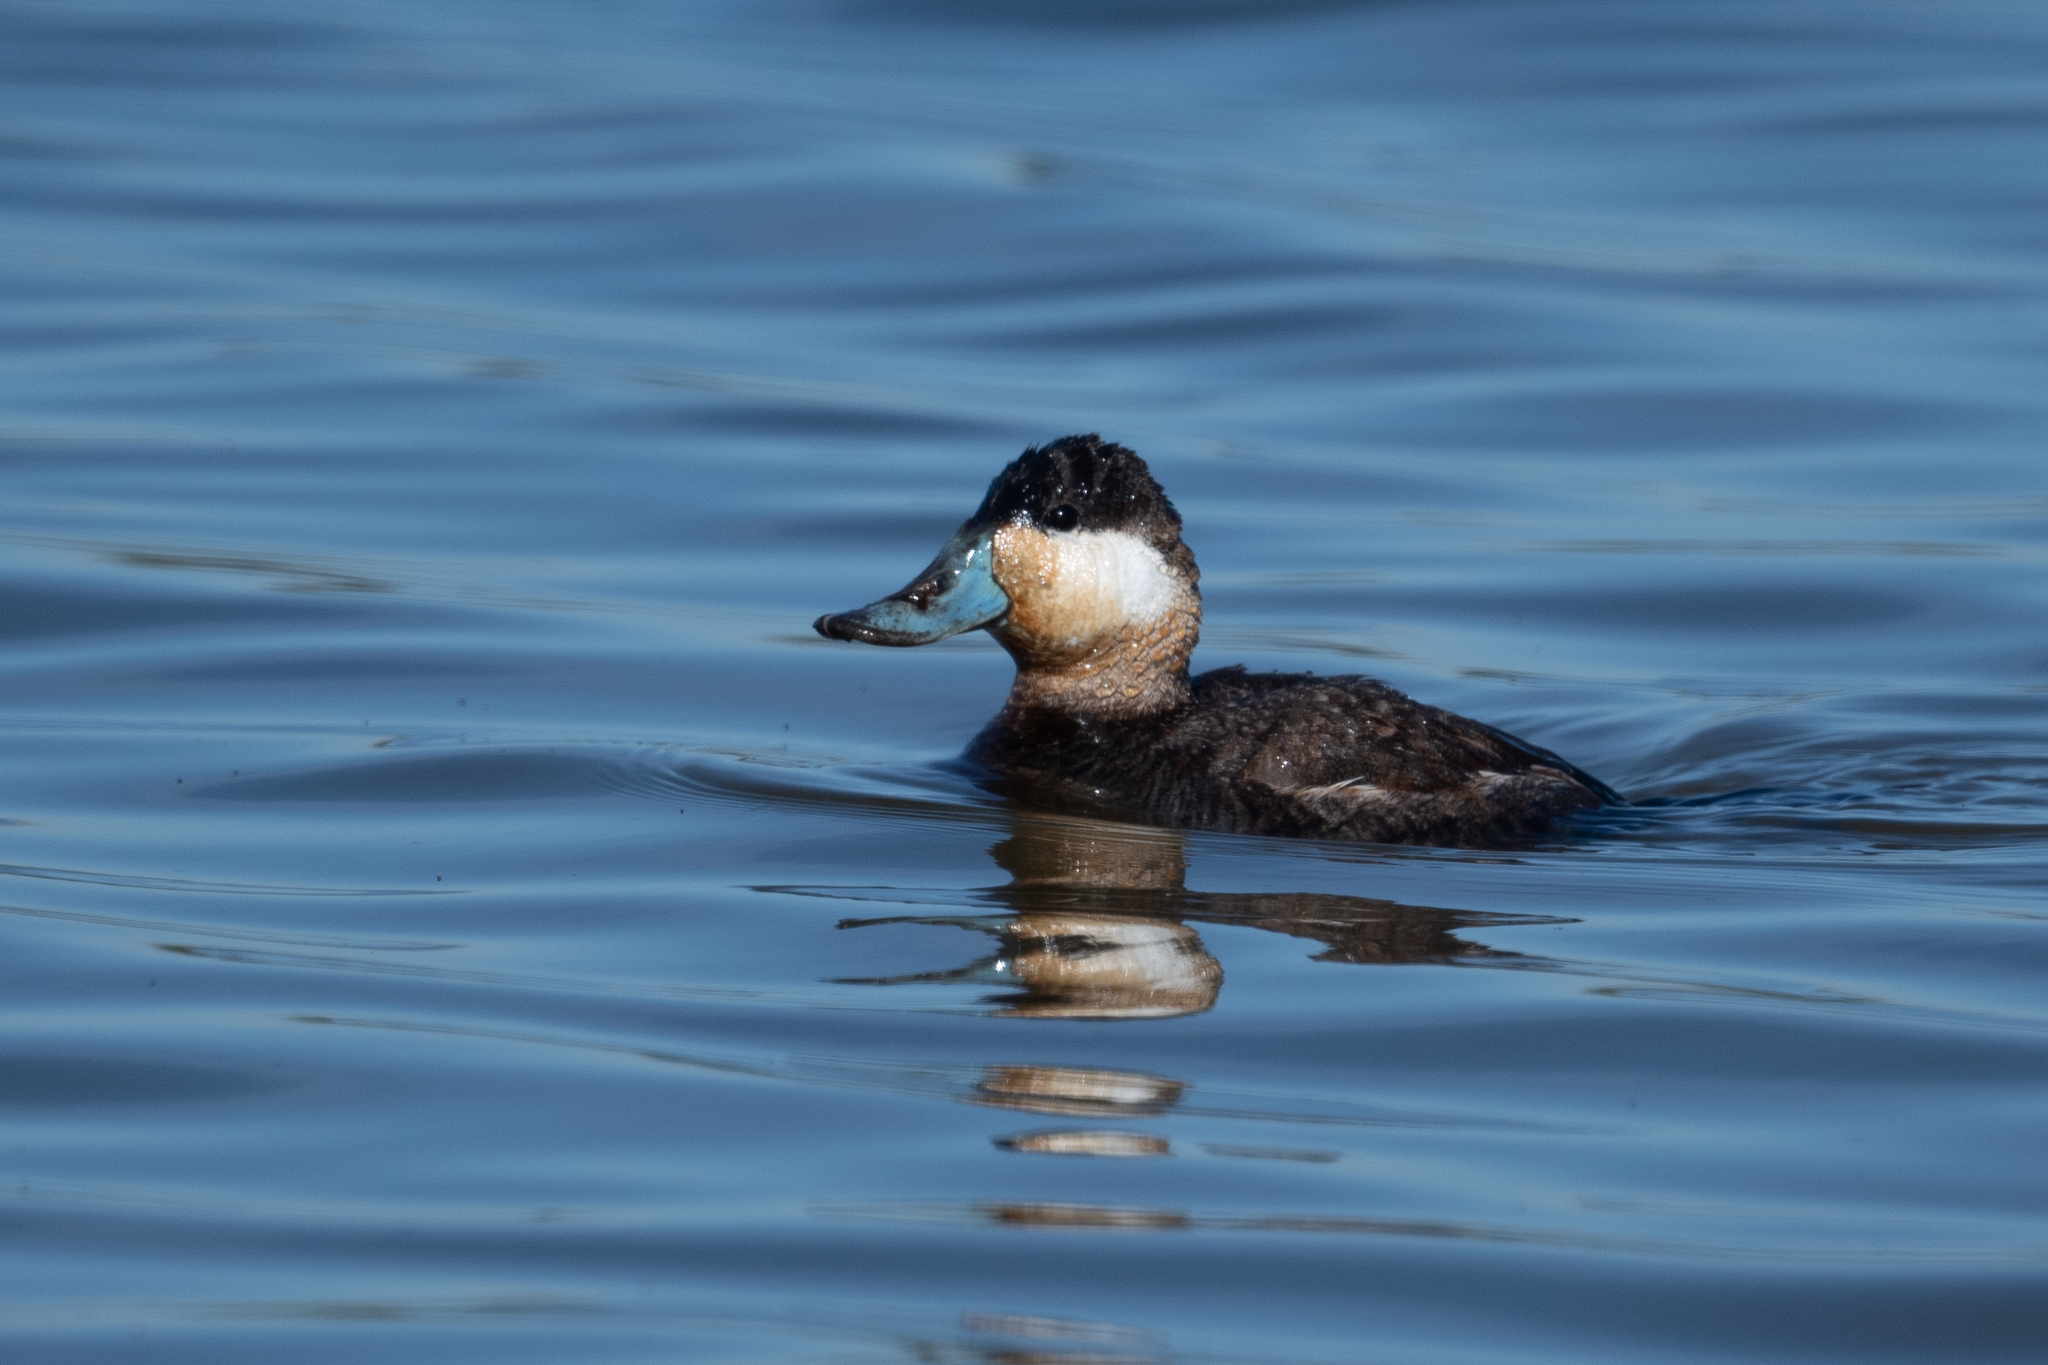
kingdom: Animalia
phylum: Chordata
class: Aves
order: Anseriformes
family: Anatidae
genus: Oxyura
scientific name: Oxyura jamaicensis
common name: Ruddy duck
